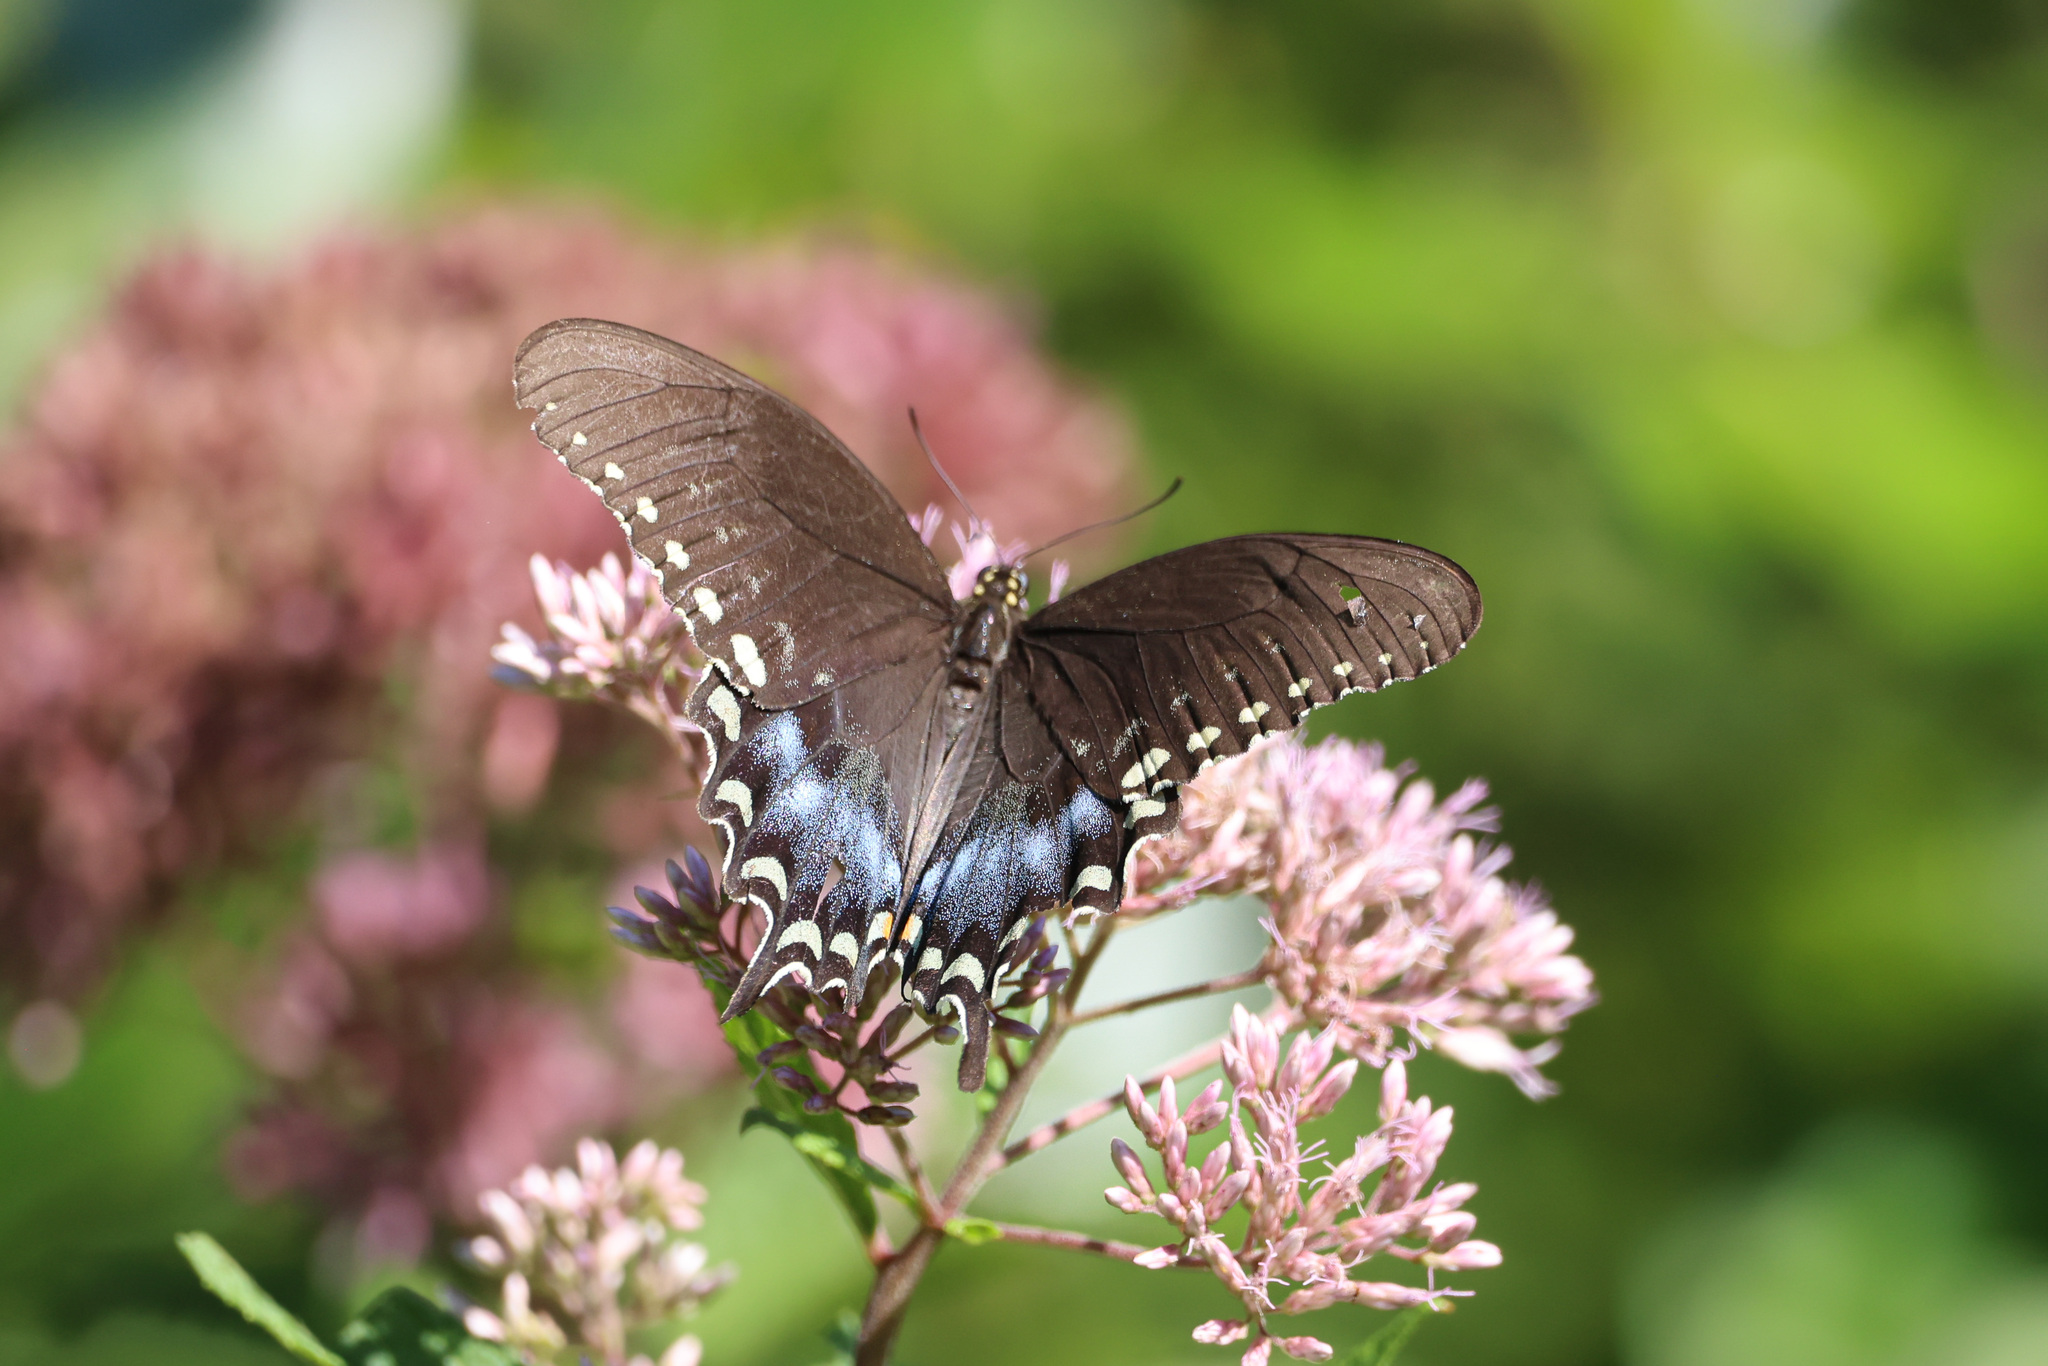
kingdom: Animalia
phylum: Arthropoda
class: Insecta
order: Lepidoptera
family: Papilionidae
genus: Papilio
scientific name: Papilio troilus
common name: Spicebush swallowtail
